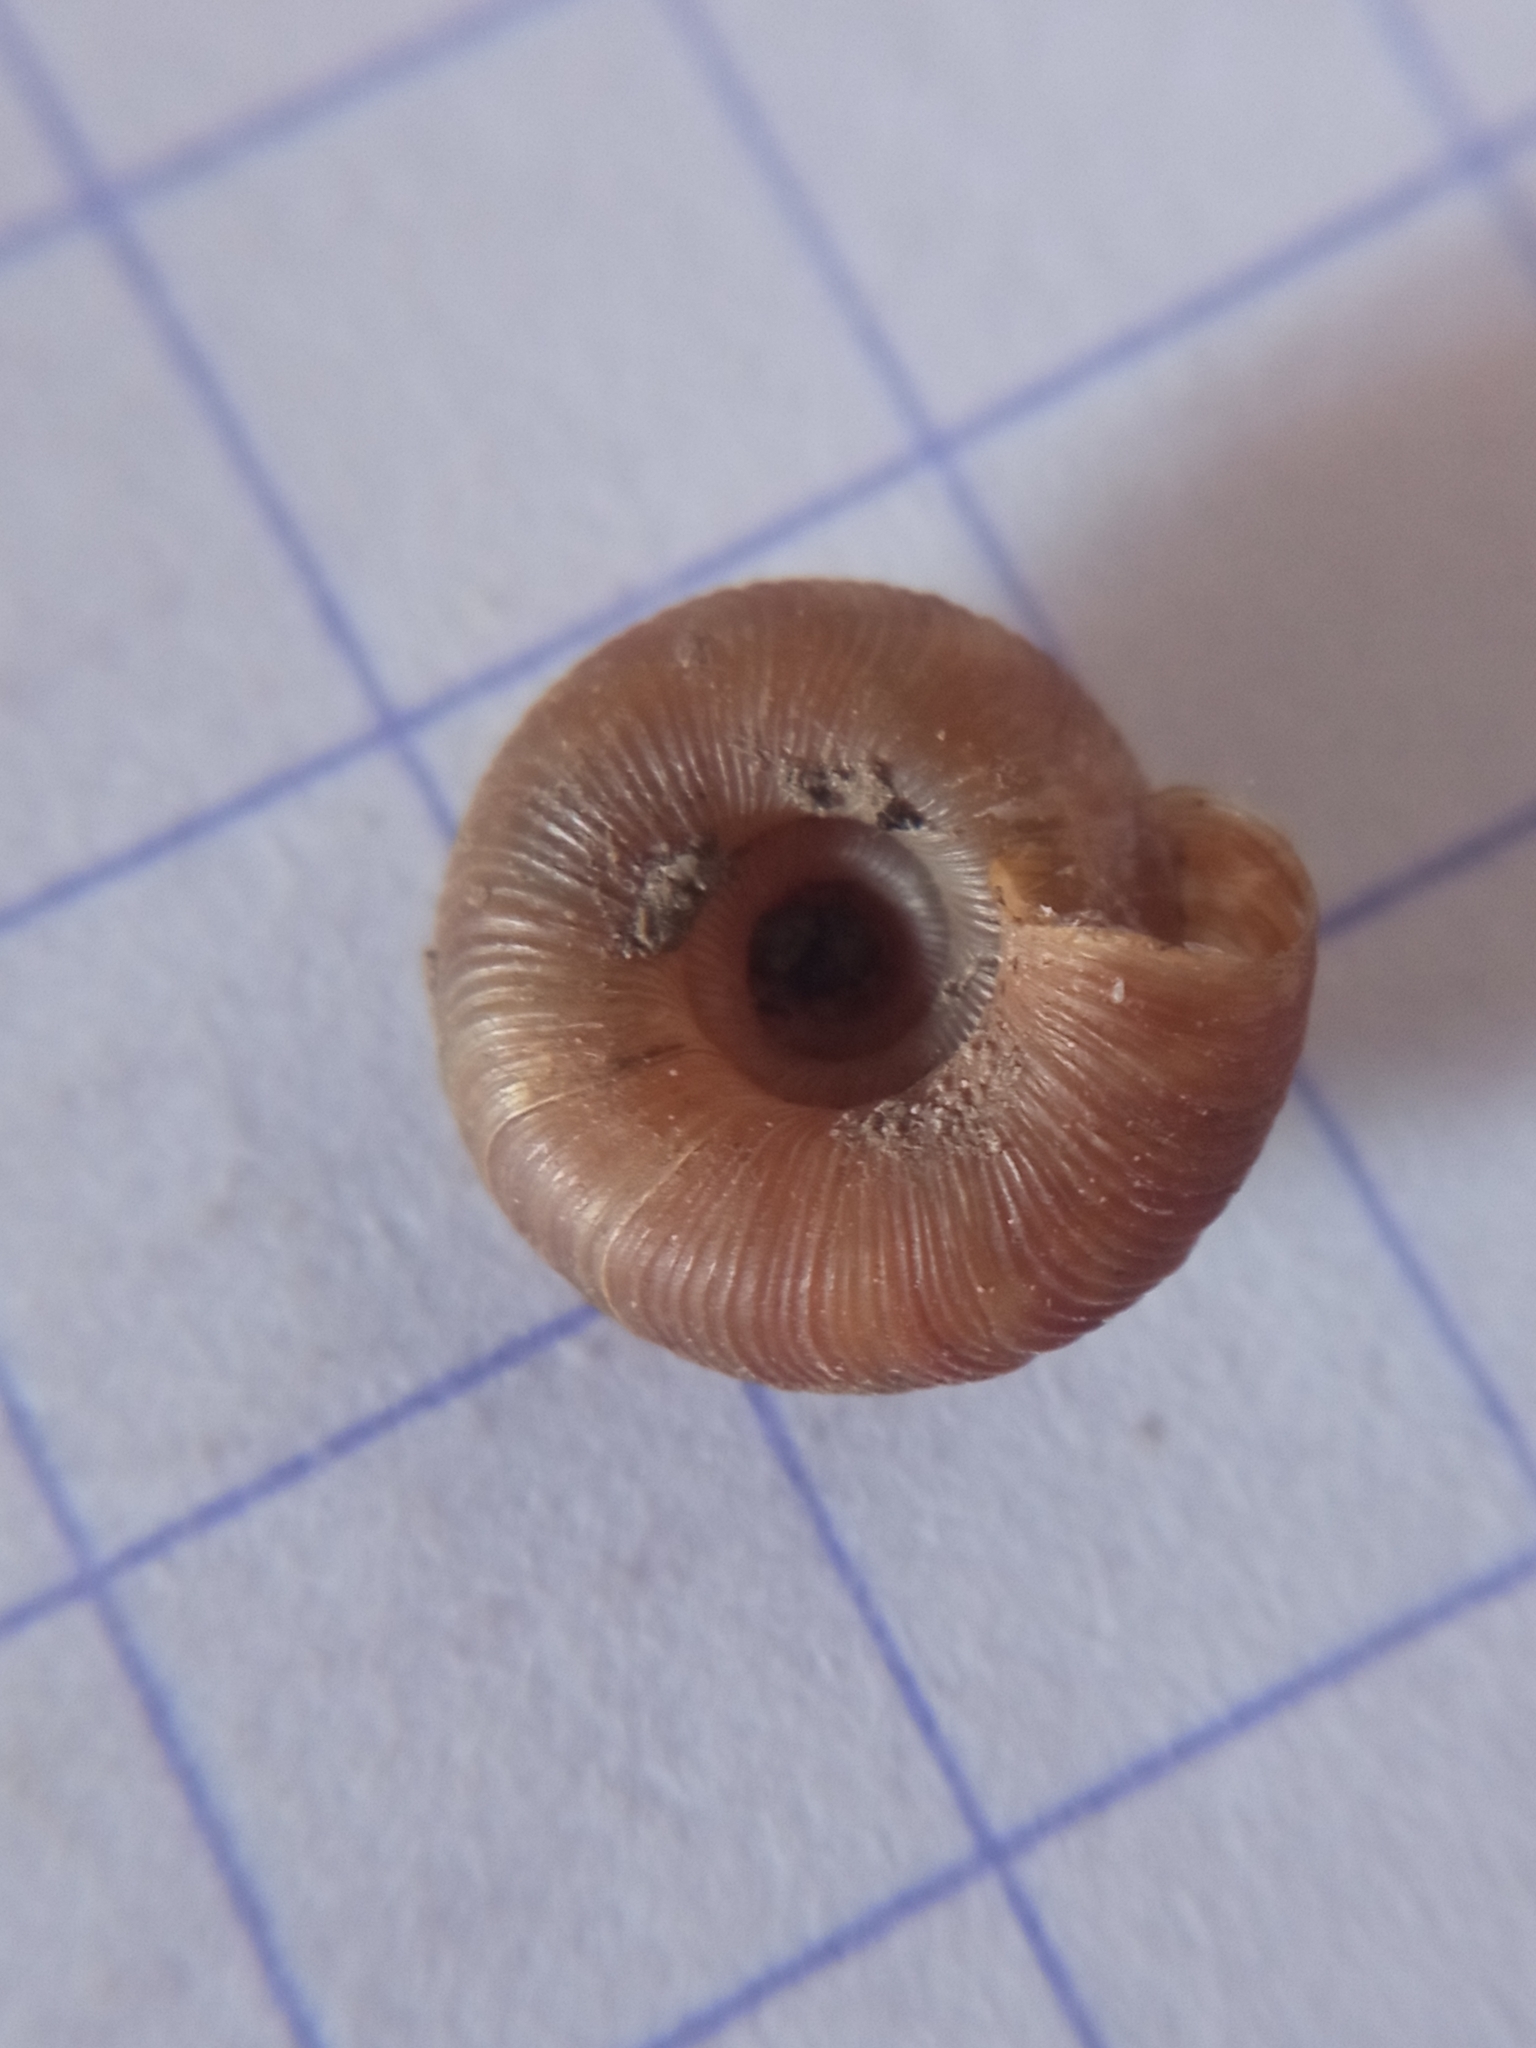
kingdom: Animalia
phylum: Mollusca
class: Gastropoda
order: Stylommatophora
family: Discidae
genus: Discus
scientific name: Discus rotundatus
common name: Rounded snail
